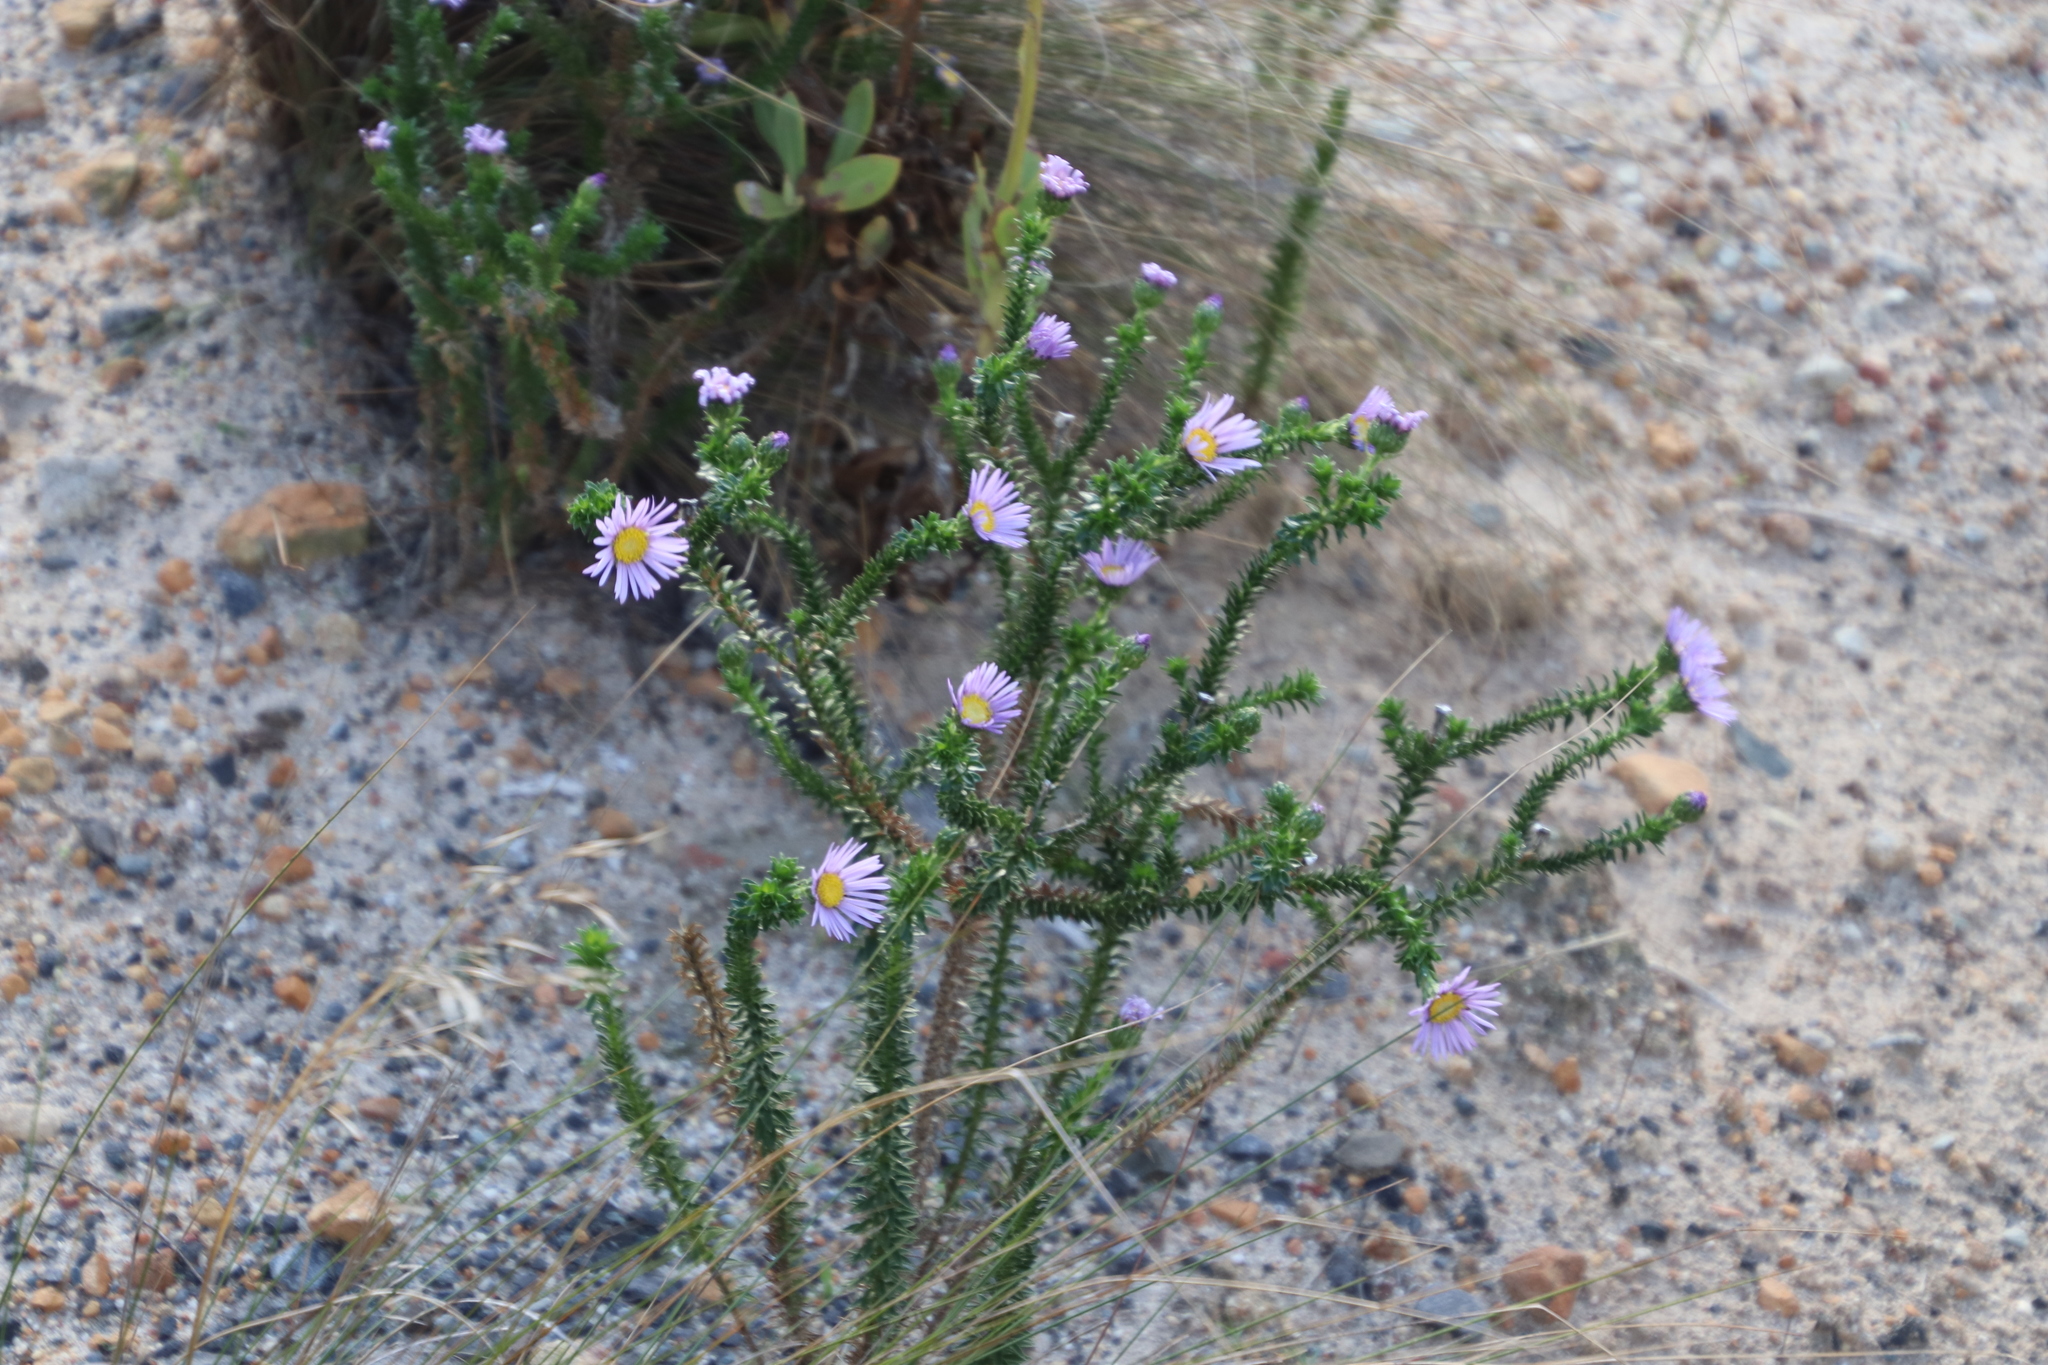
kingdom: Plantae
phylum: Tracheophyta
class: Magnoliopsida
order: Asterales
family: Asteraceae
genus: Felicia
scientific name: Felicia echinata
